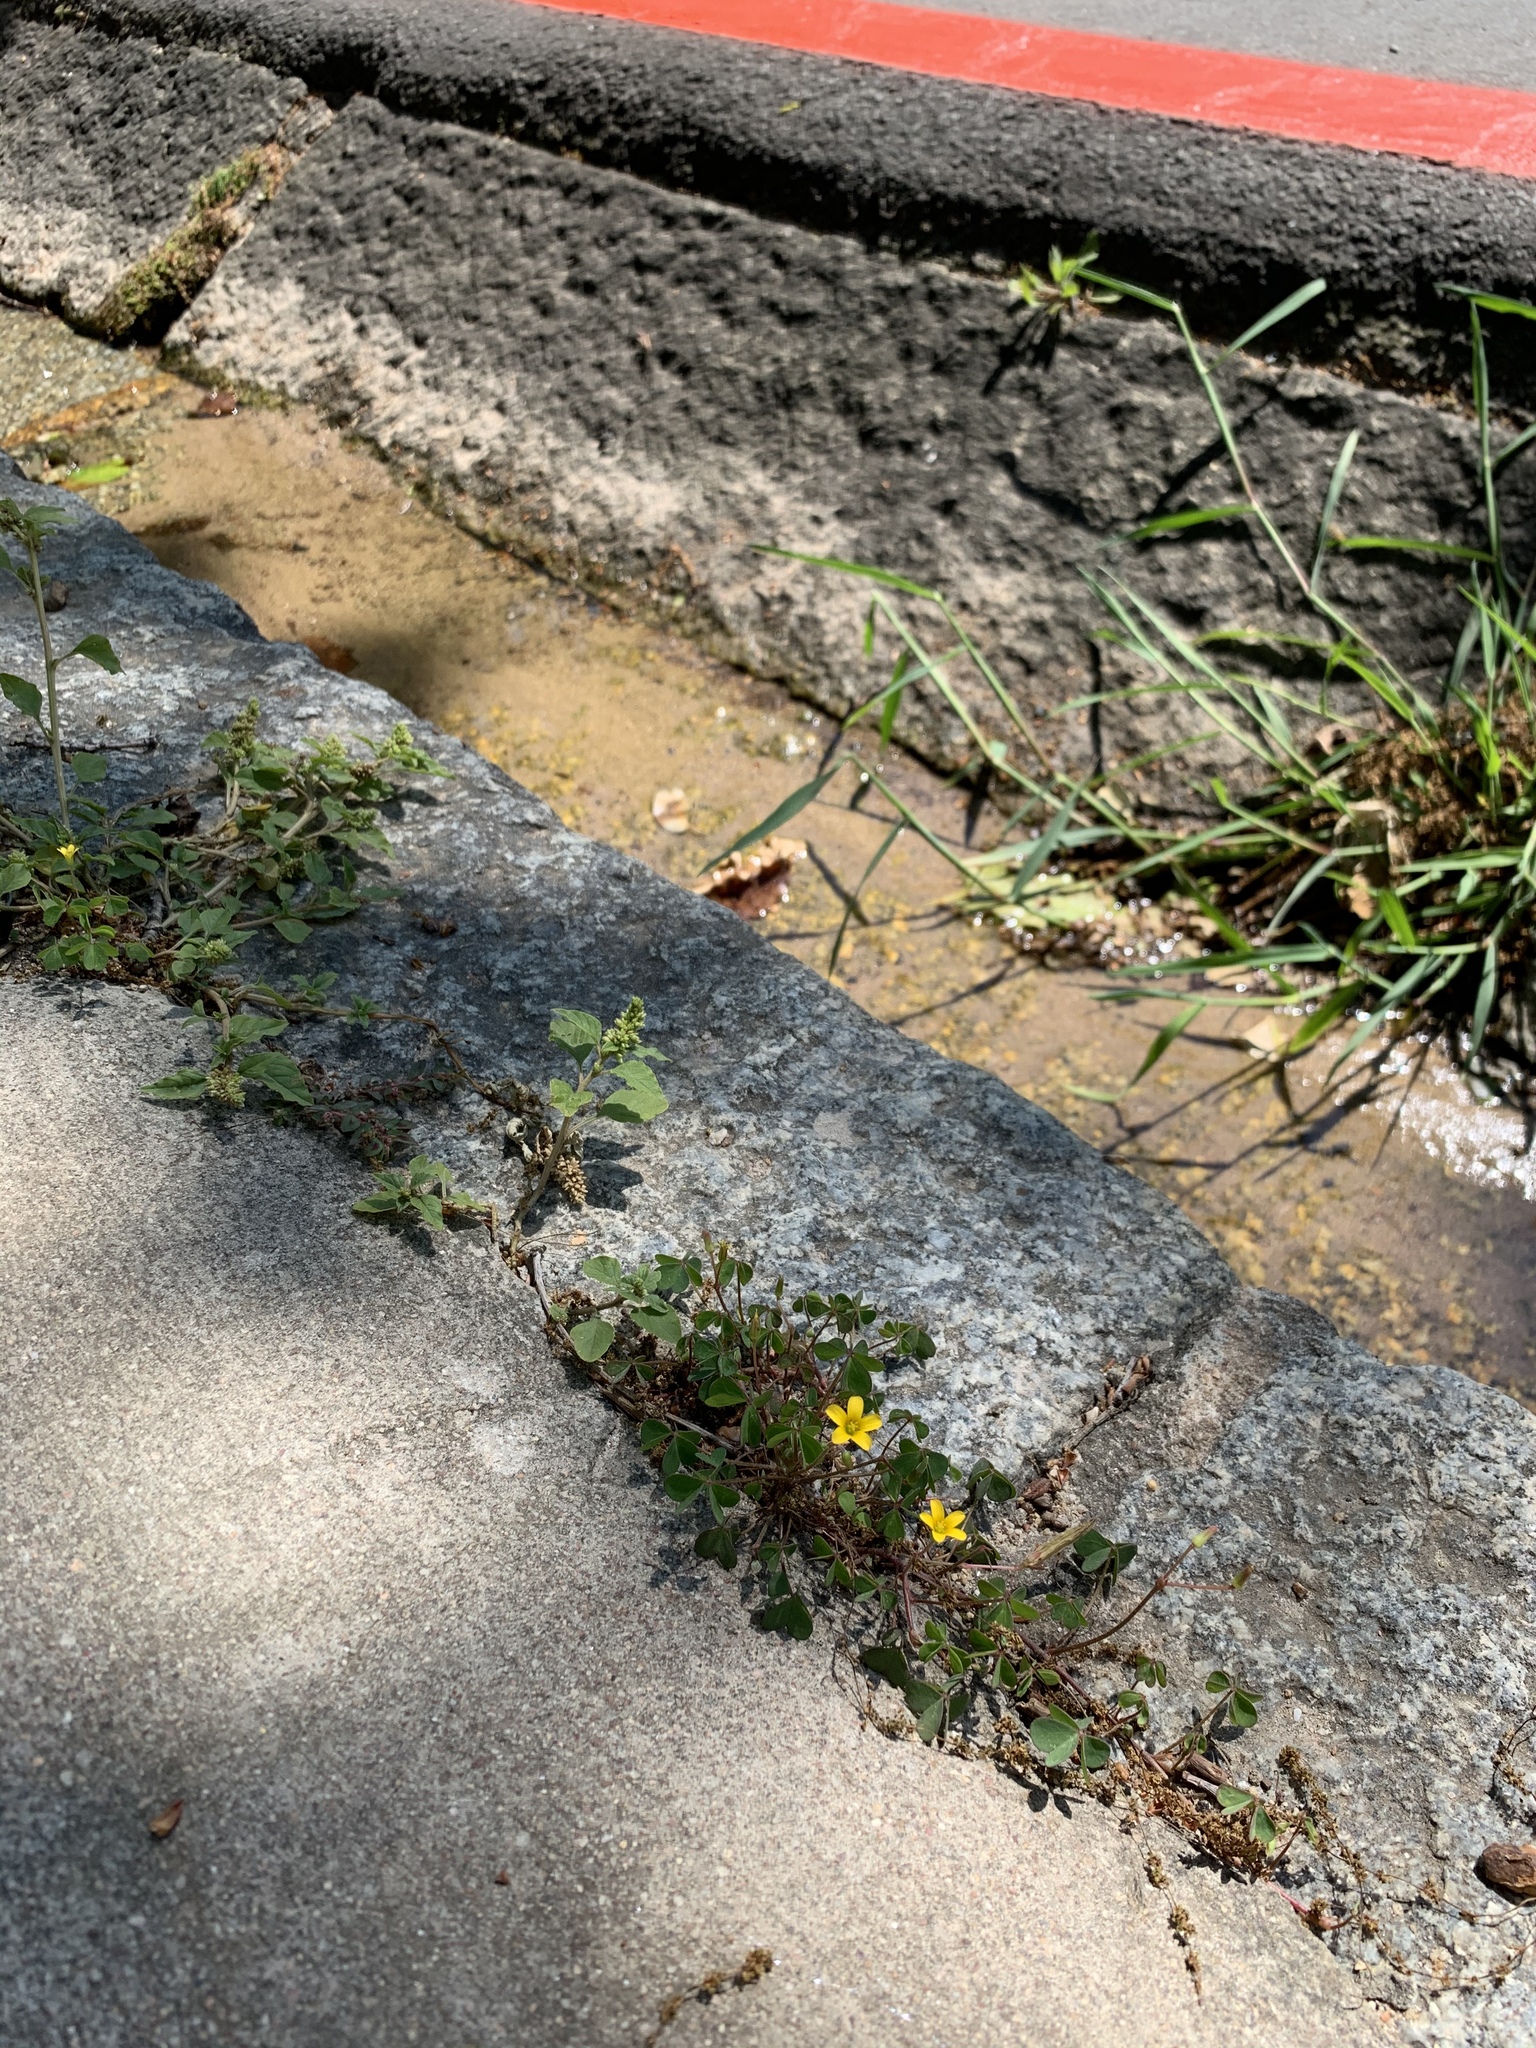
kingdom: Plantae
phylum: Tracheophyta
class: Magnoliopsida
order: Oxalidales
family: Oxalidaceae
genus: Oxalis
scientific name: Oxalis corniculata
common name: Procumbent yellow-sorrel
